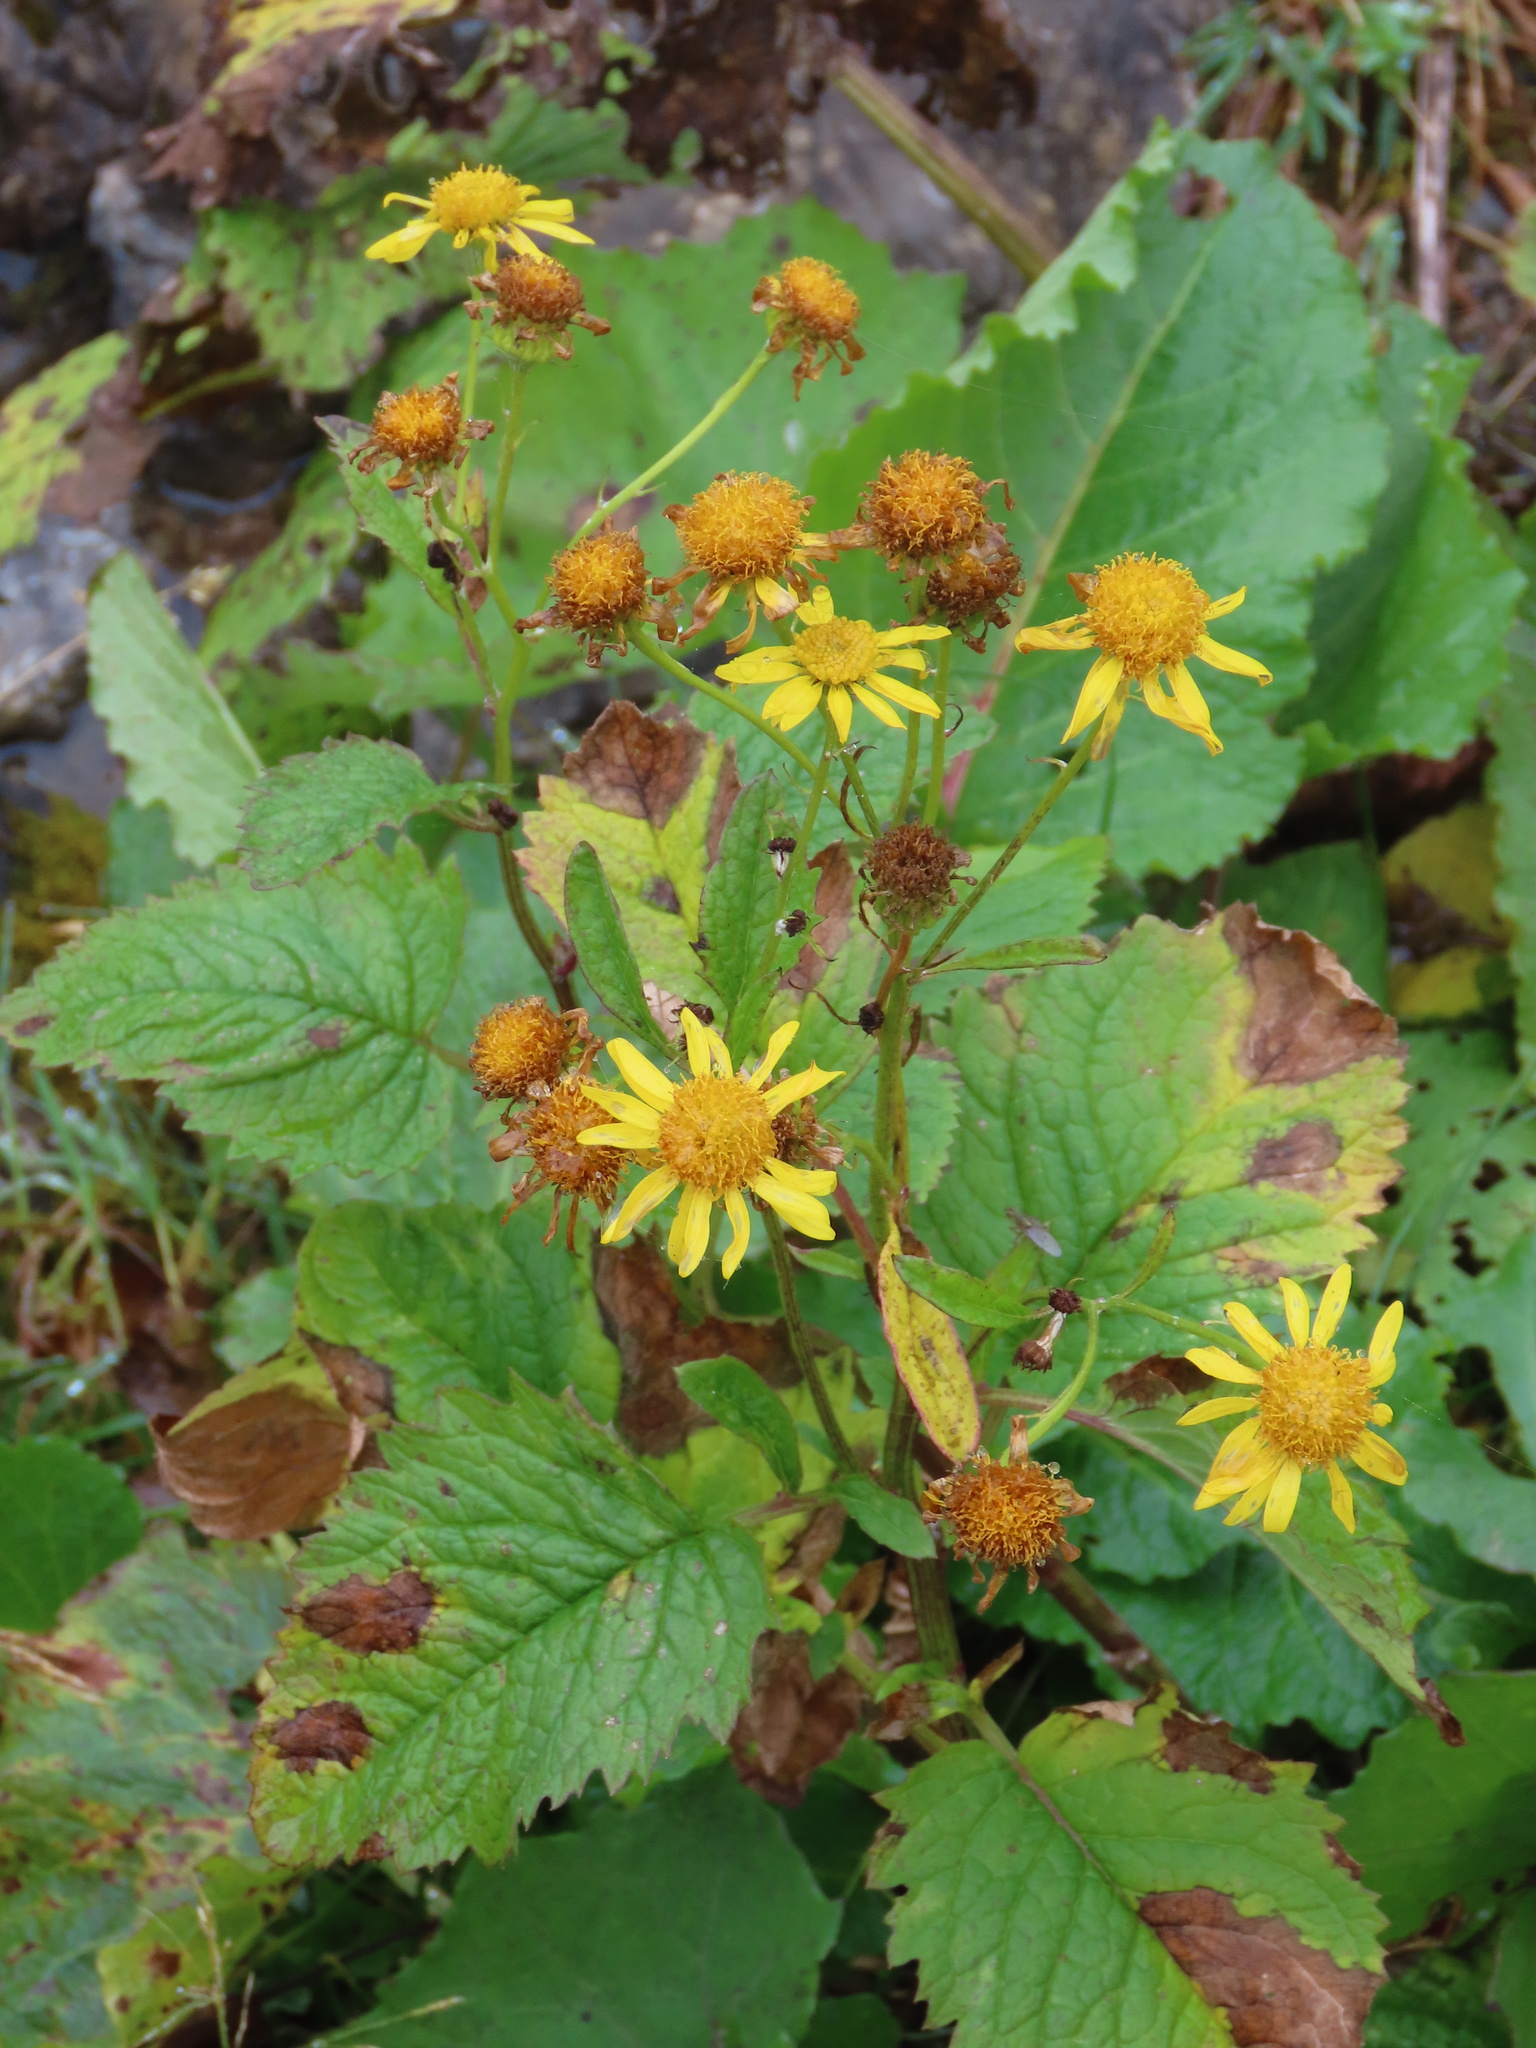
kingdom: Plantae
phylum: Tracheophyta
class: Magnoliopsida
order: Asterales
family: Asteraceae
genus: Jacobaea
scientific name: Jacobaea alpina
